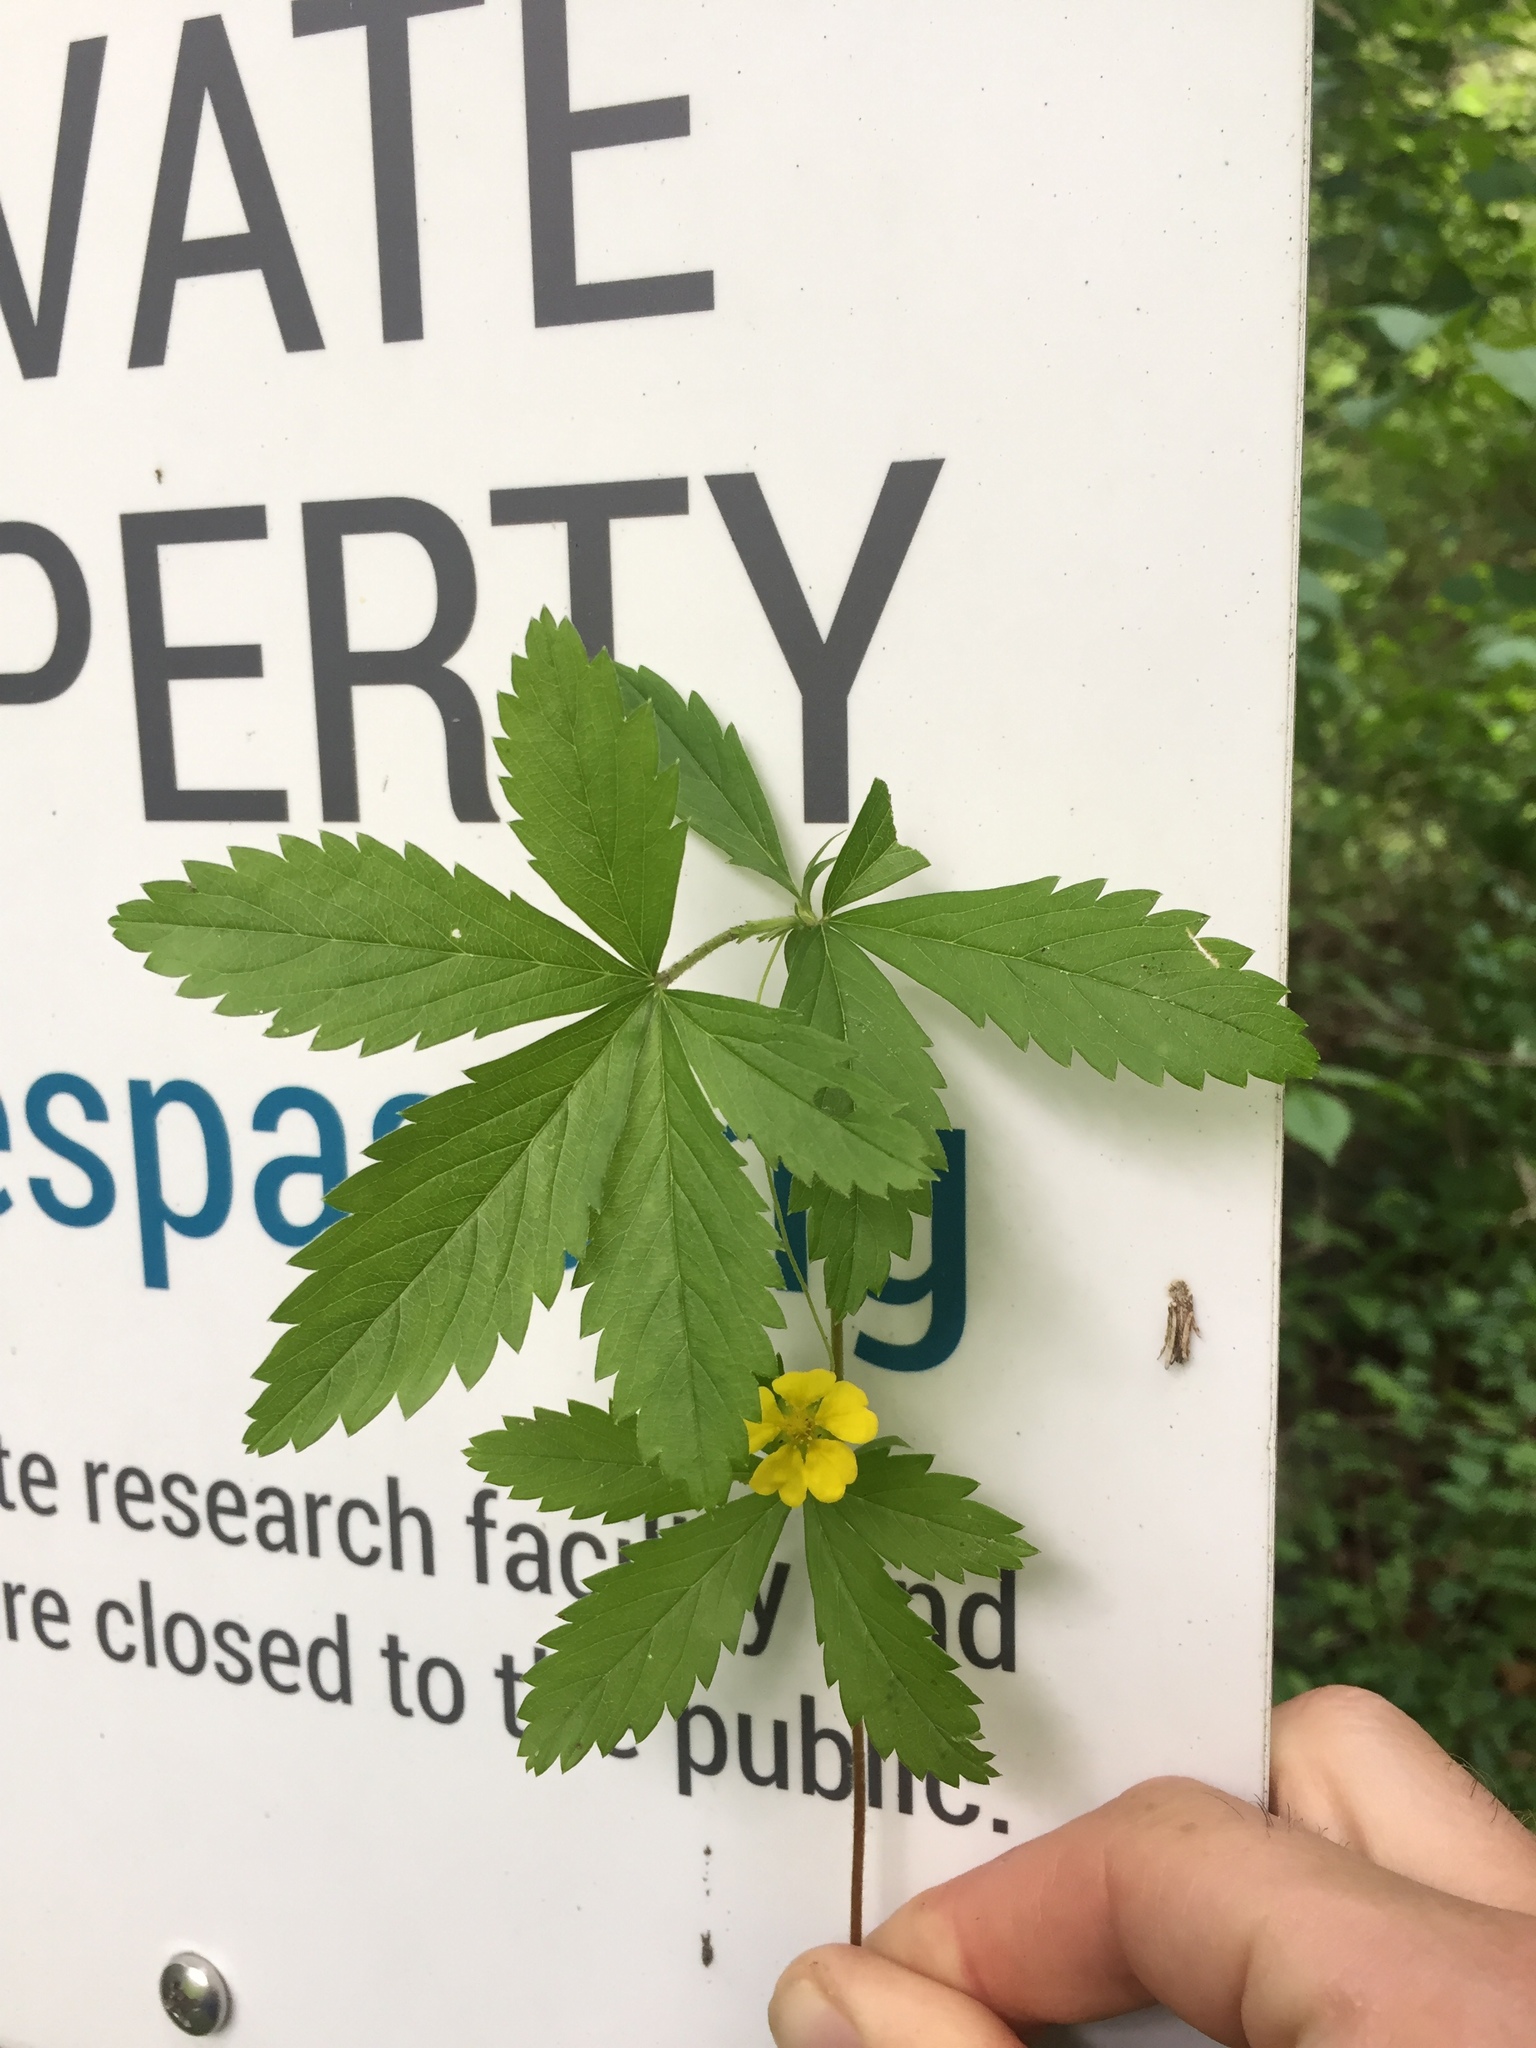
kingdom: Plantae
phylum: Tracheophyta
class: Magnoliopsida
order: Rosales
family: Rosaceae
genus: Potentilla
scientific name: Potentilla simplex
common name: Old field cinquefoil
